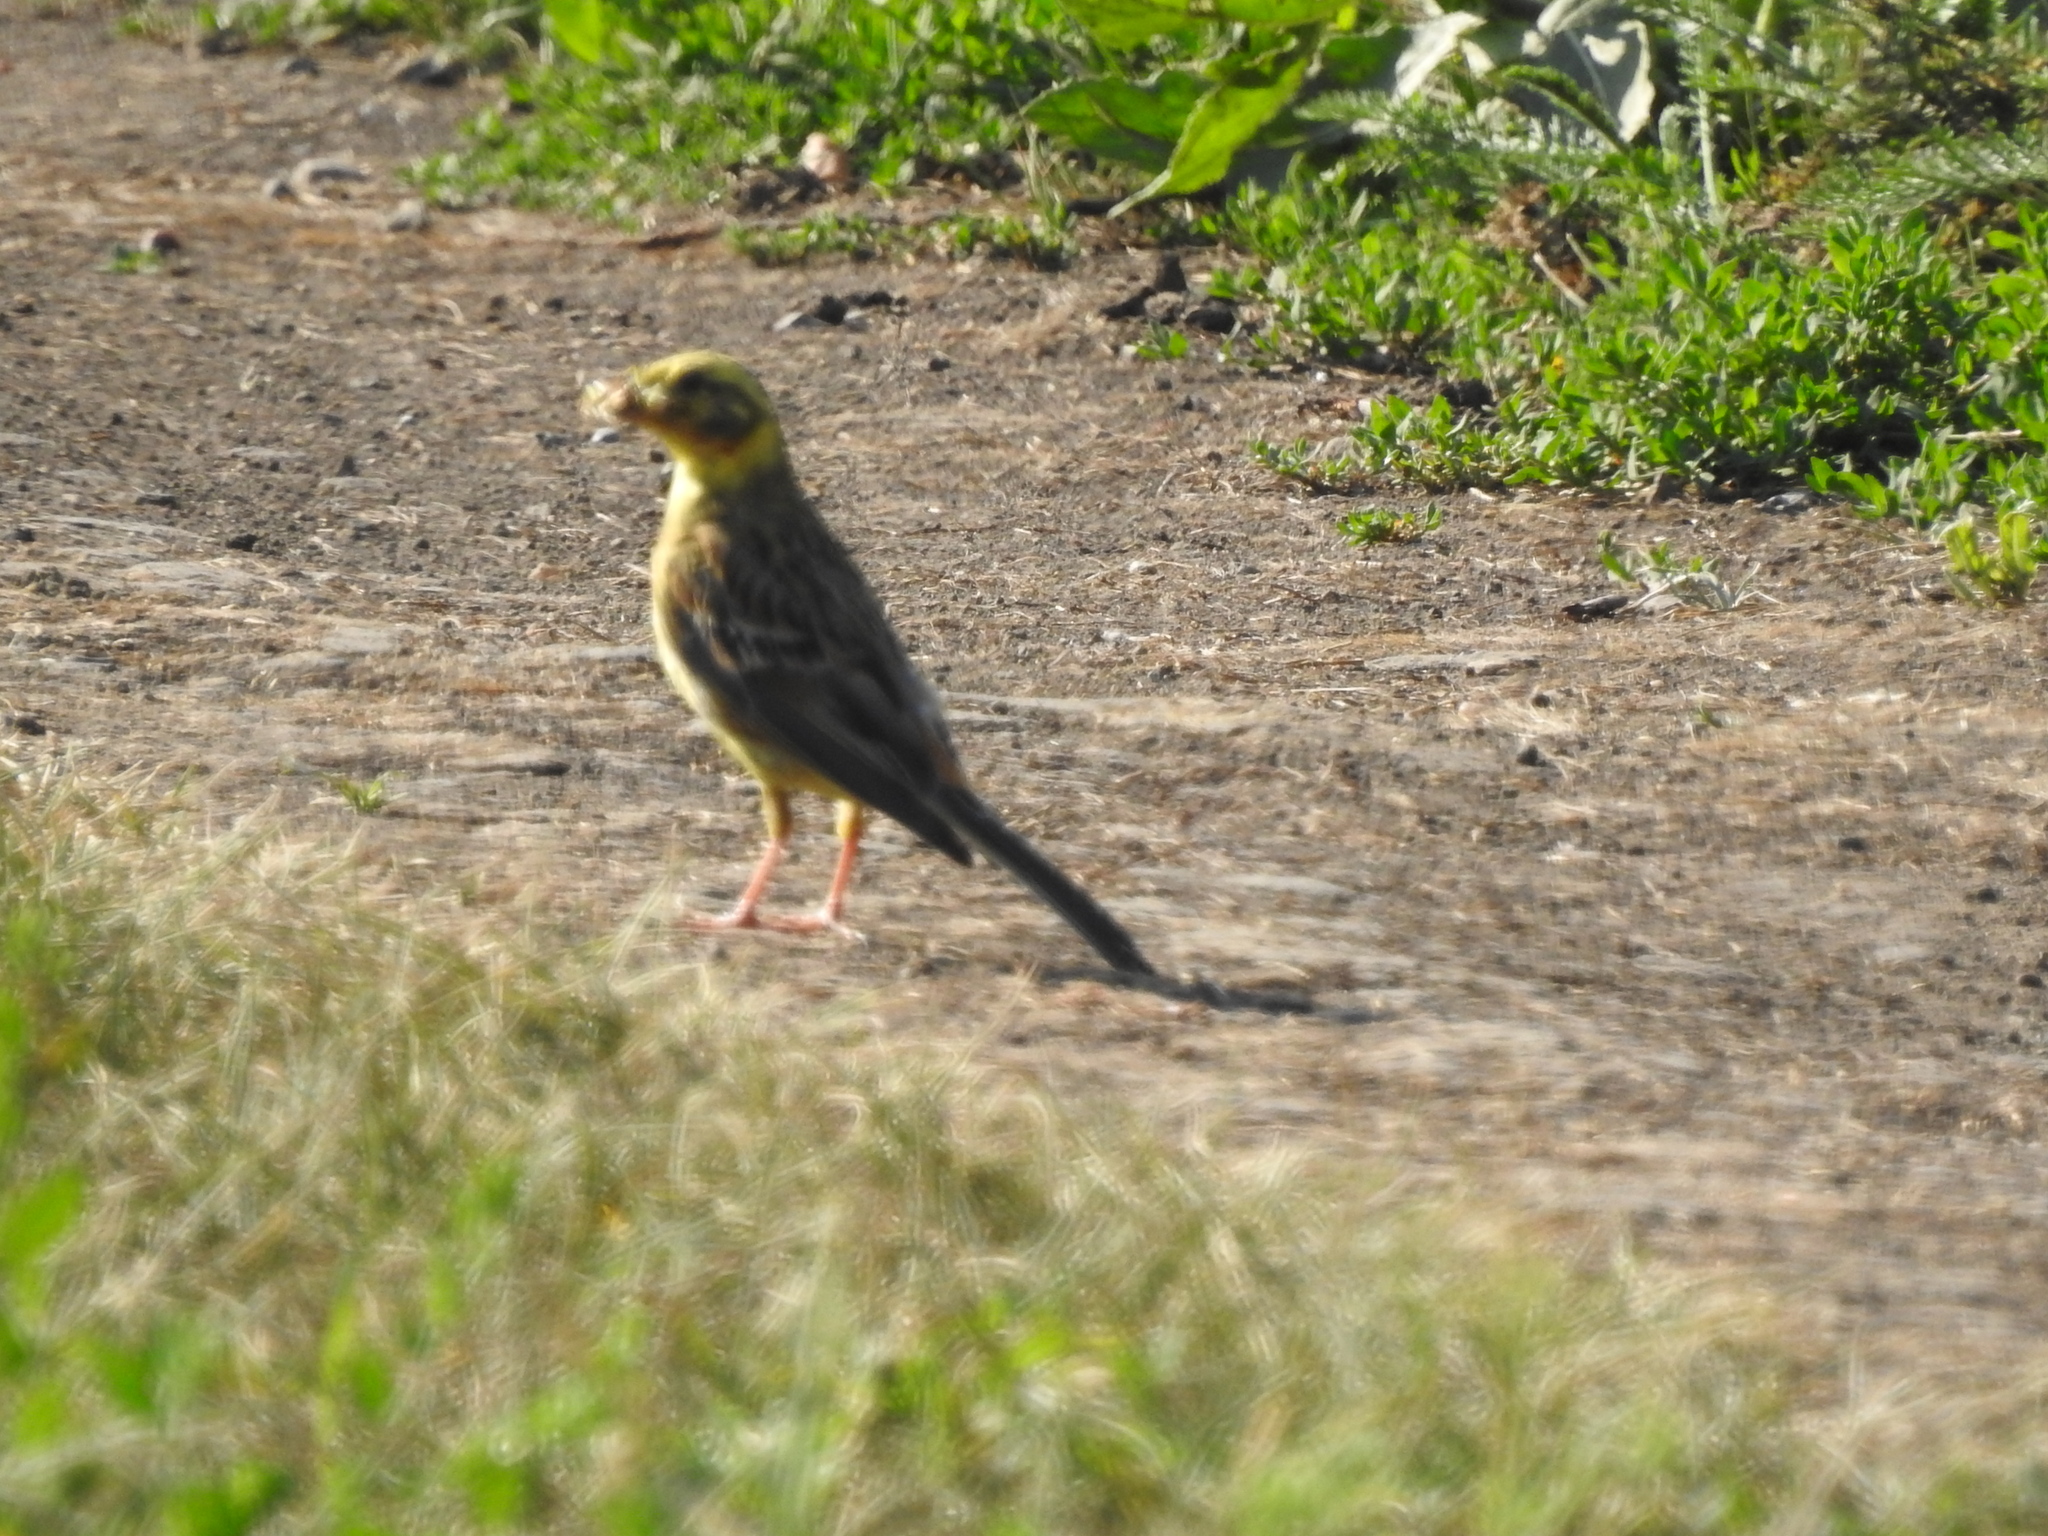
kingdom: Animalia
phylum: Chordata
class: Aves
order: Passeriformes
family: Emberizidae
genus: Emberiza
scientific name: Emberiza citrinella
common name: Yellowhammer
